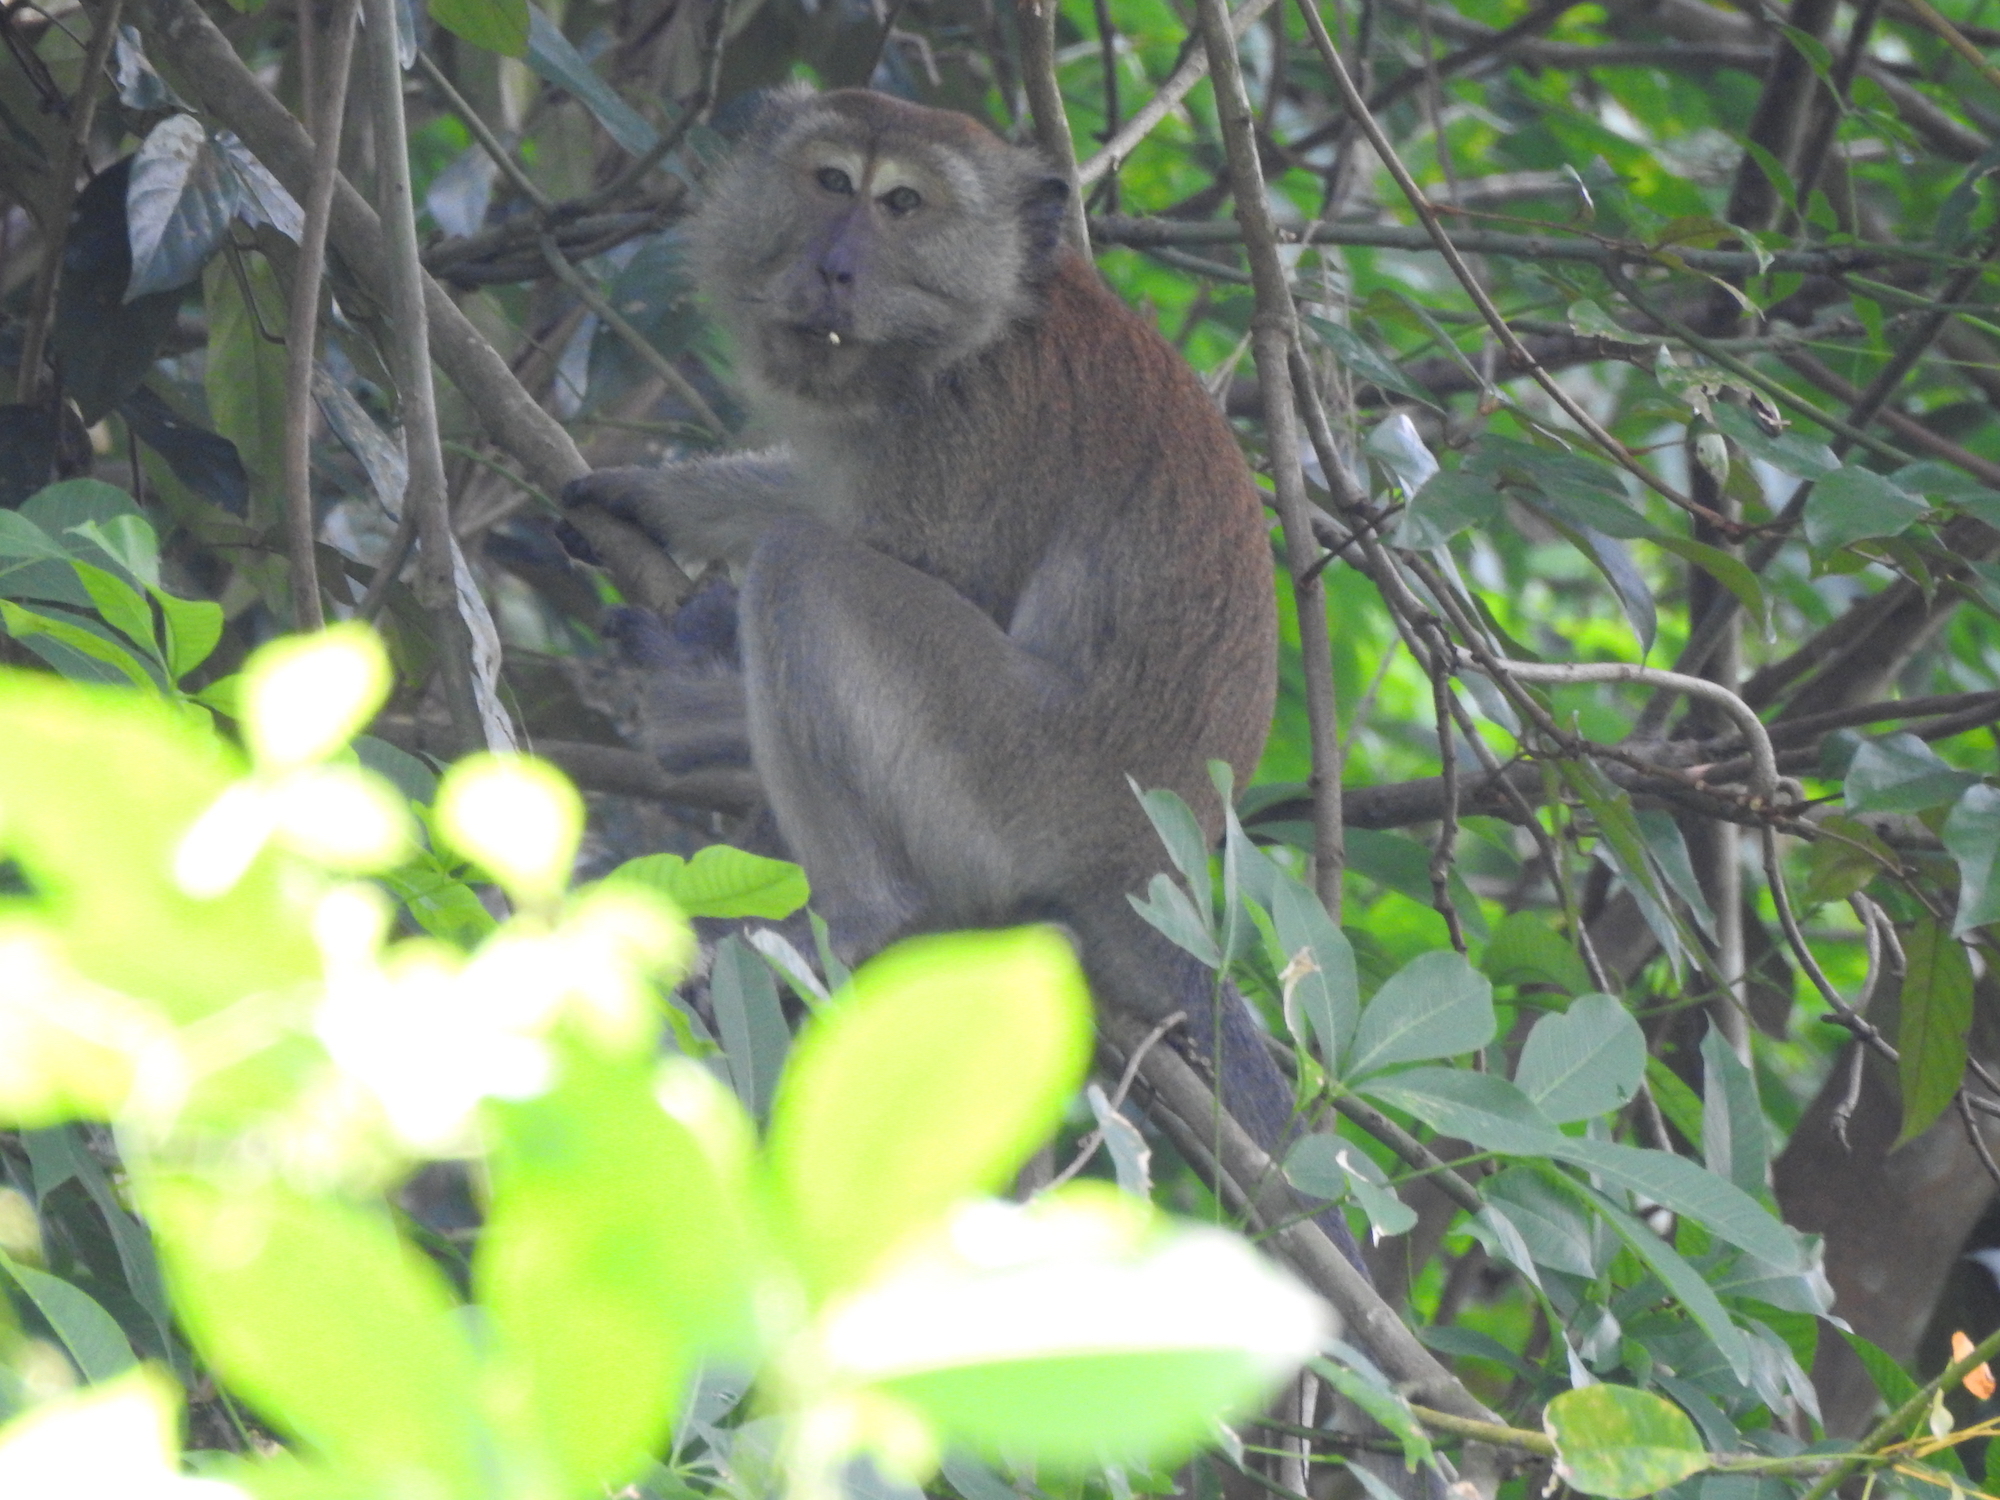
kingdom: Animalia
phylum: Chordata
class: Mammalia
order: Primates
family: Cercopithecidae
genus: Macaca
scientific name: Macaca fascicularis
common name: Crab-eating macaque
